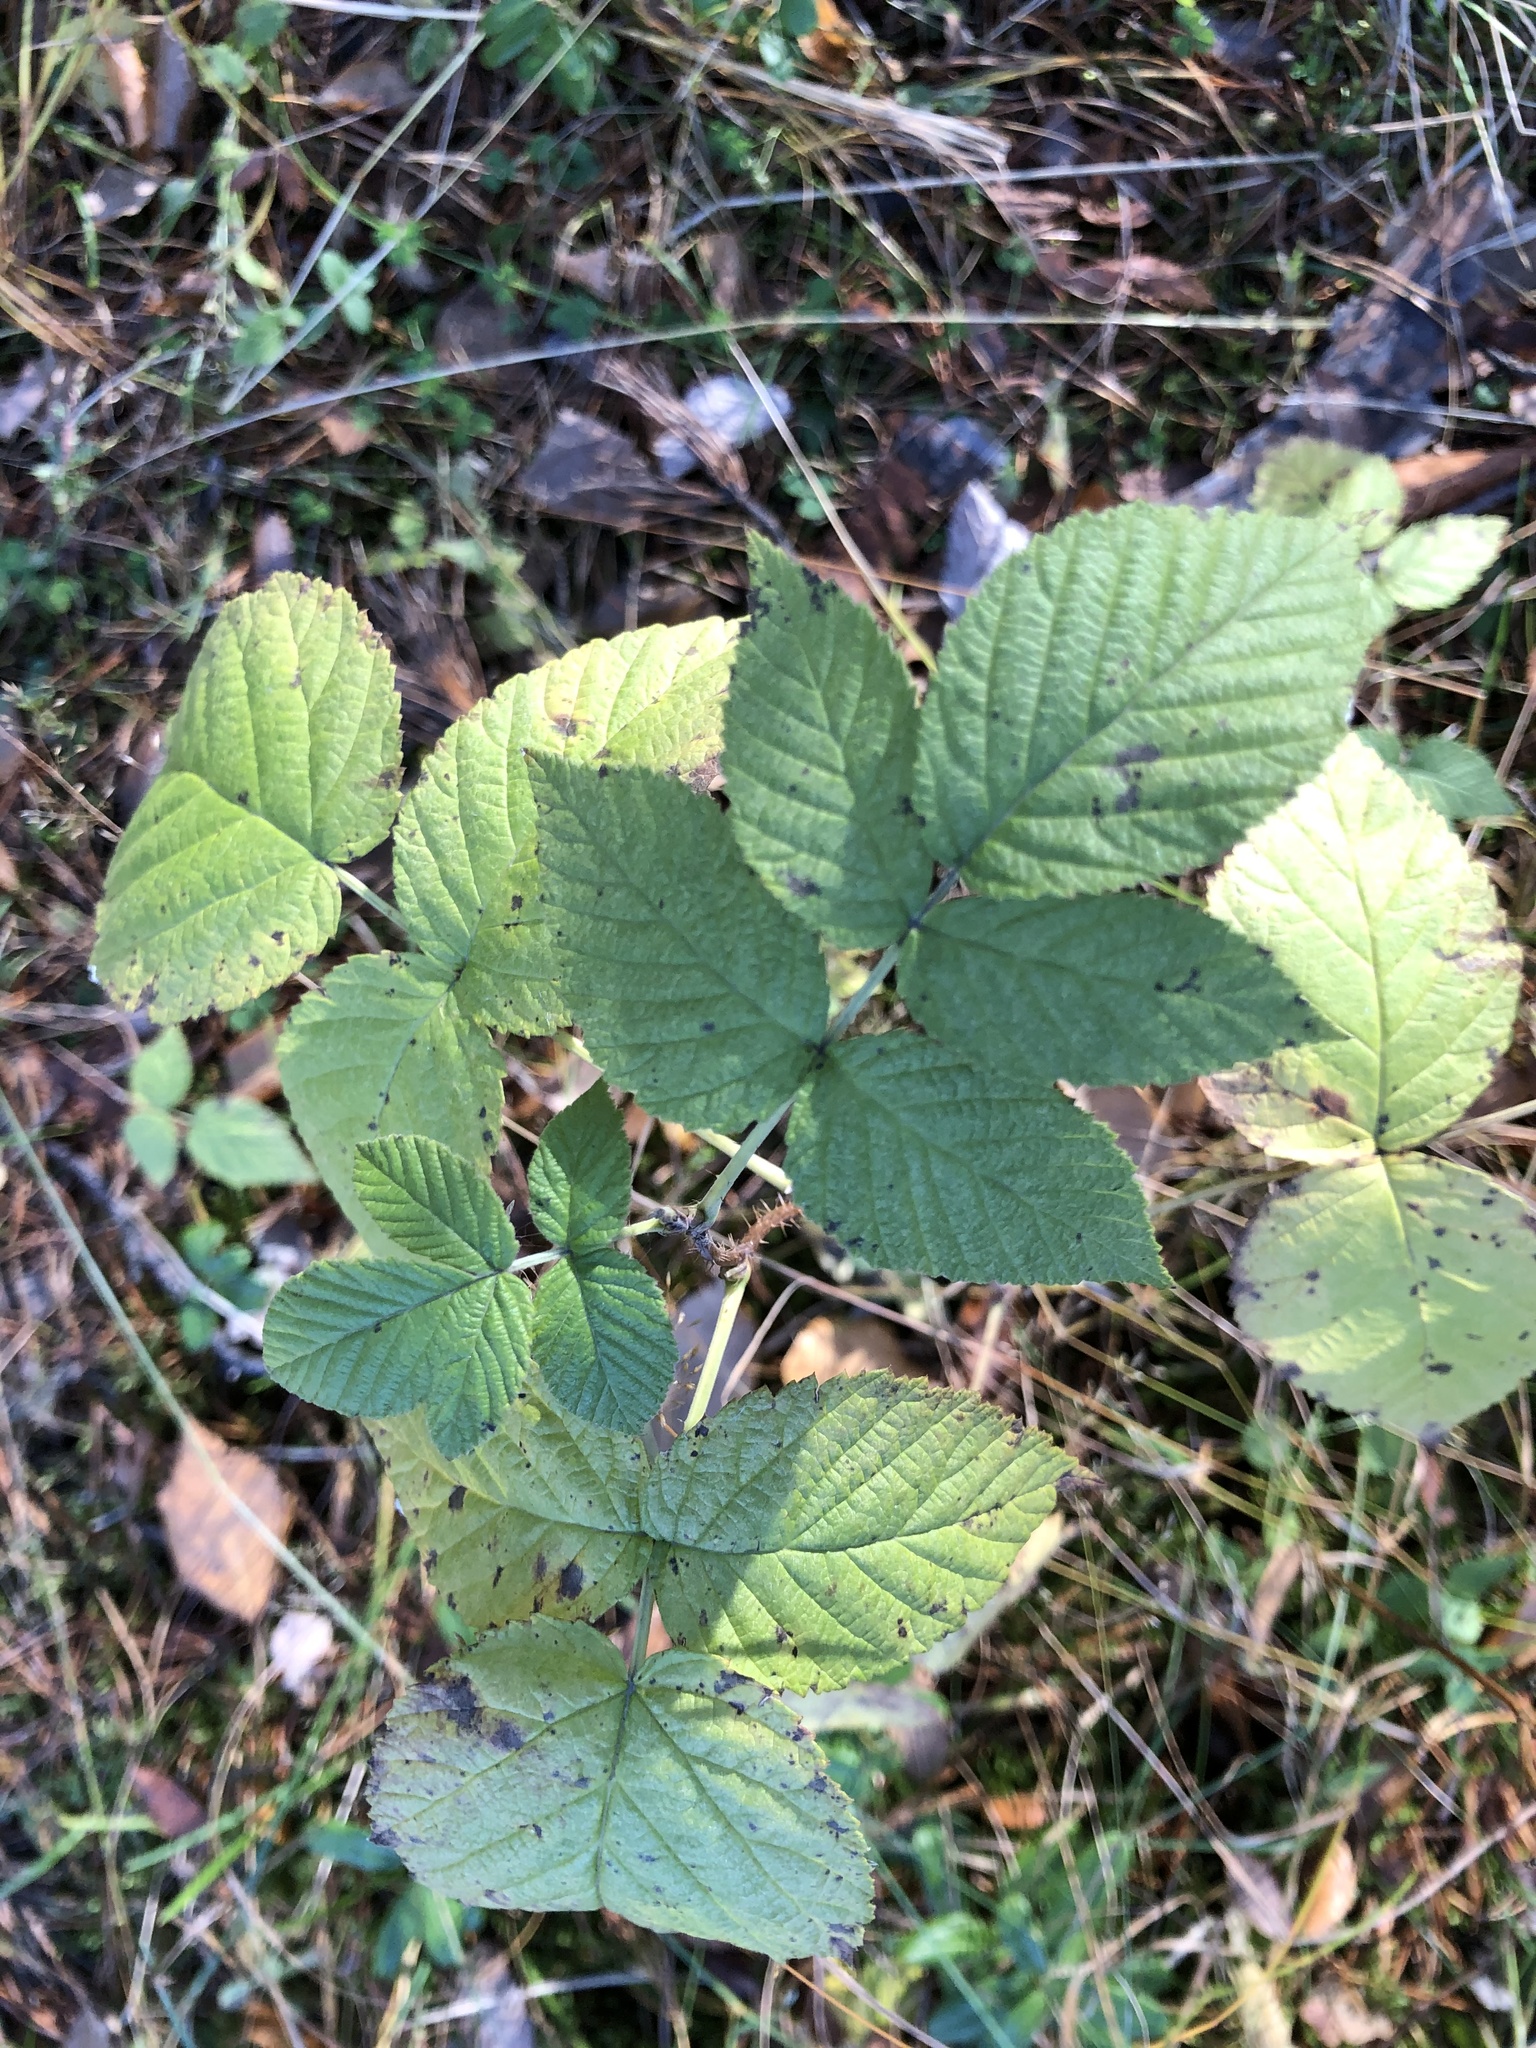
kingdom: Plantae
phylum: Tracheophyta
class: Magnoliopsida
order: Rosales
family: Rosaceae
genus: Rubus
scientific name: Rubus idaeus
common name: Raspberry
